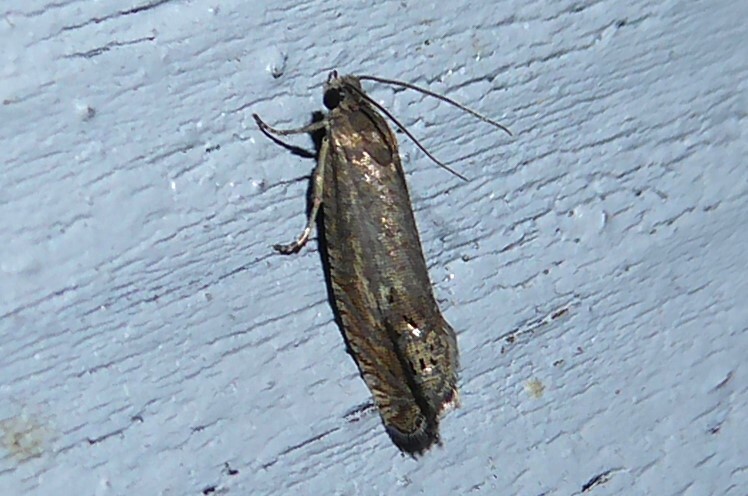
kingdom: Animalia
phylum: Arthropoda
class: Insecta
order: Lepidoptera
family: Tortricidae
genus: Cydia
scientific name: Cydia succedana
